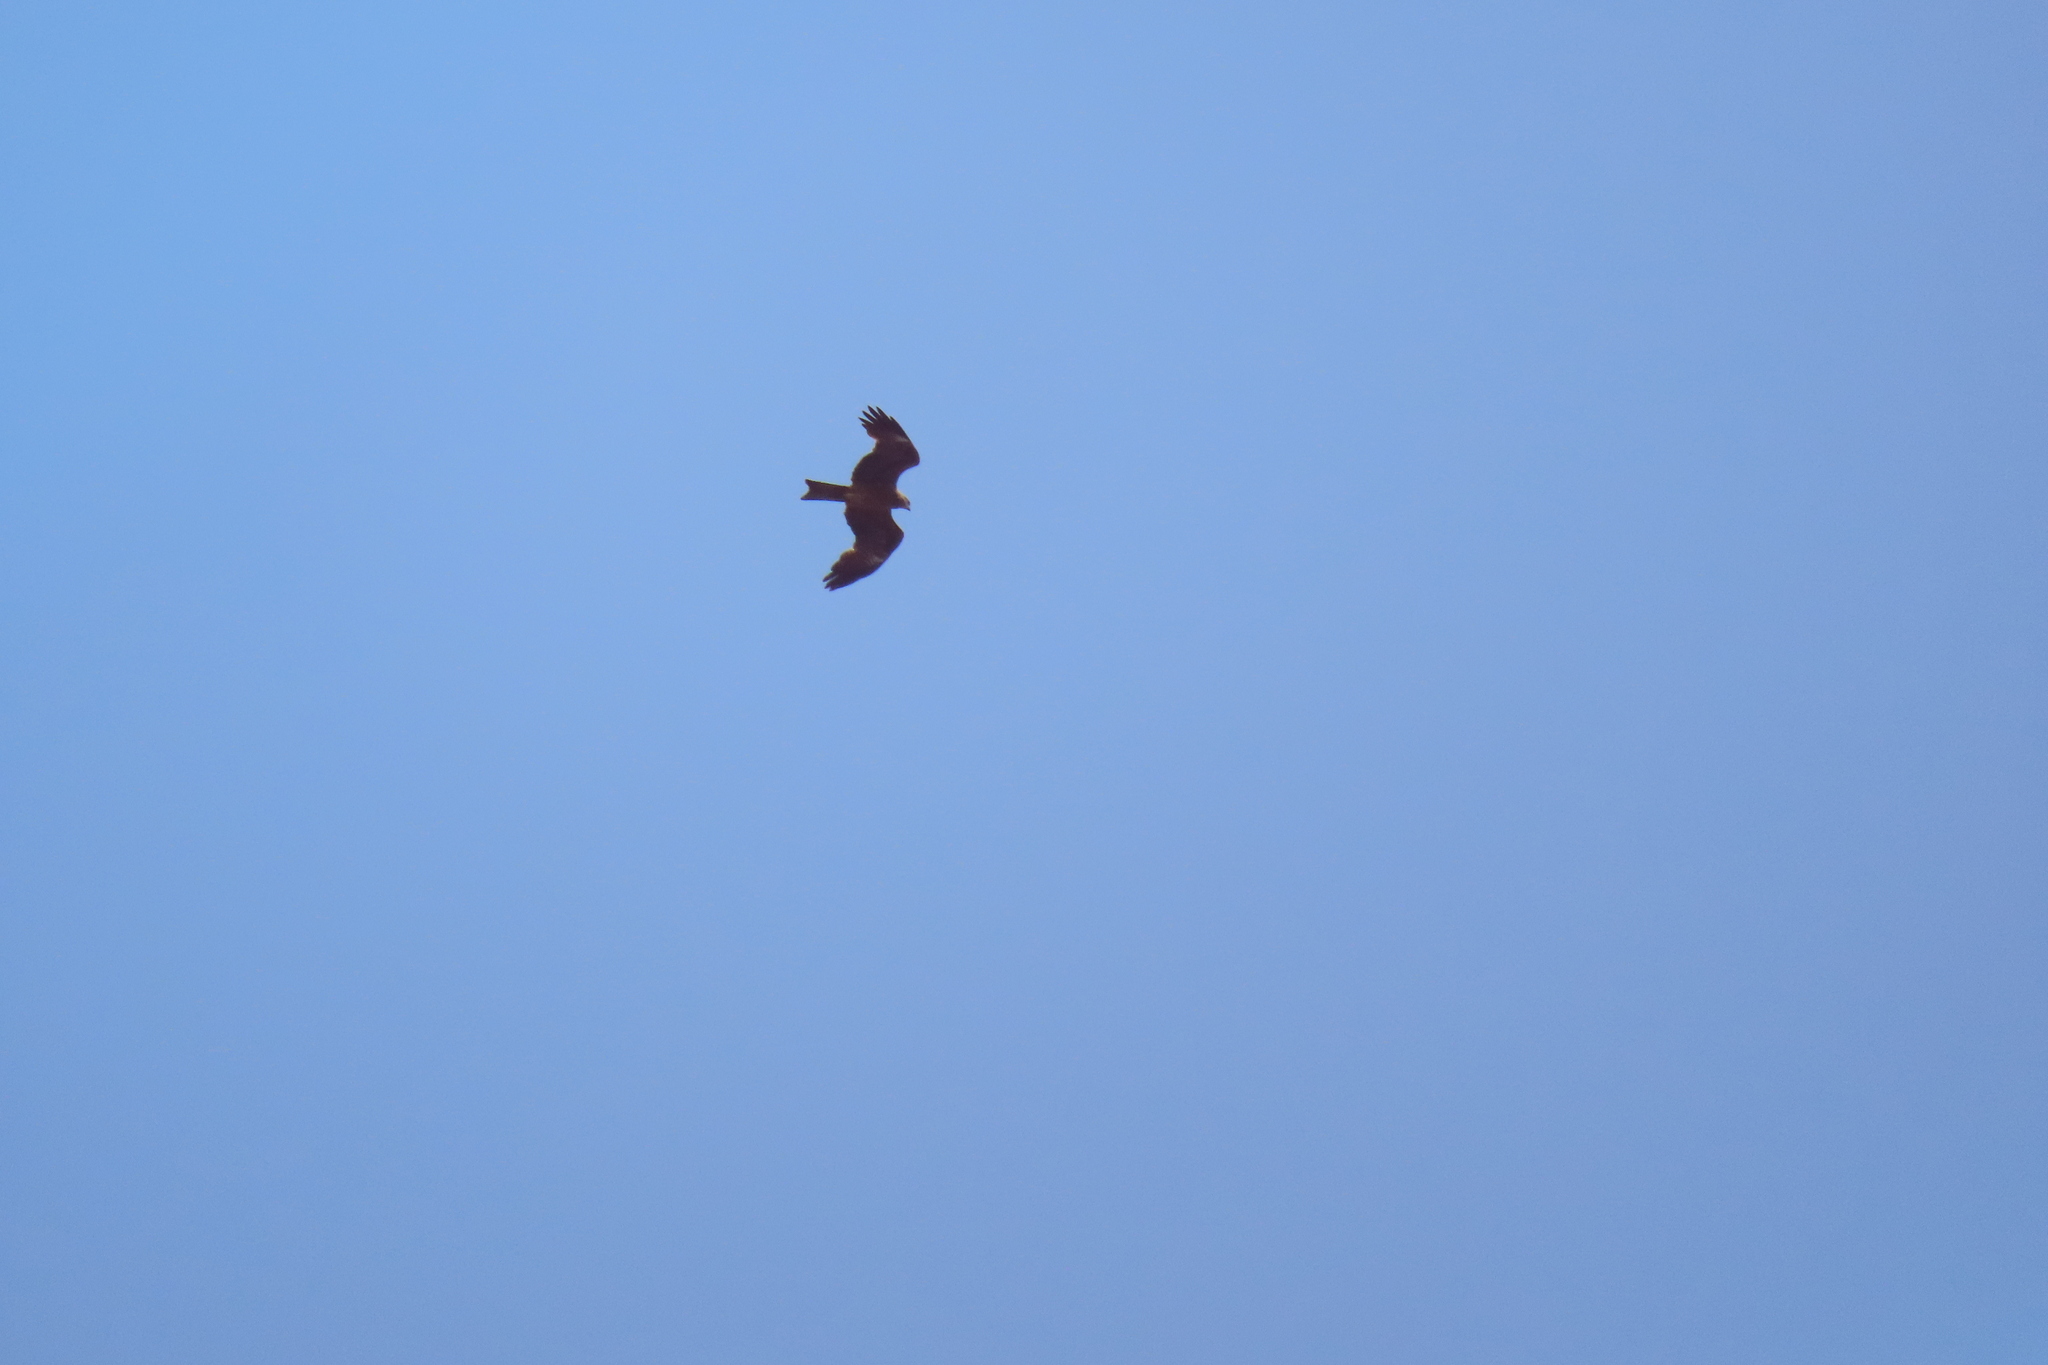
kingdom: Animalia
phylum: Chordata
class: Aves
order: Accipitriformes
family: Accipitridae
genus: Milvus
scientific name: Milvus migrans
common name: Black kite
